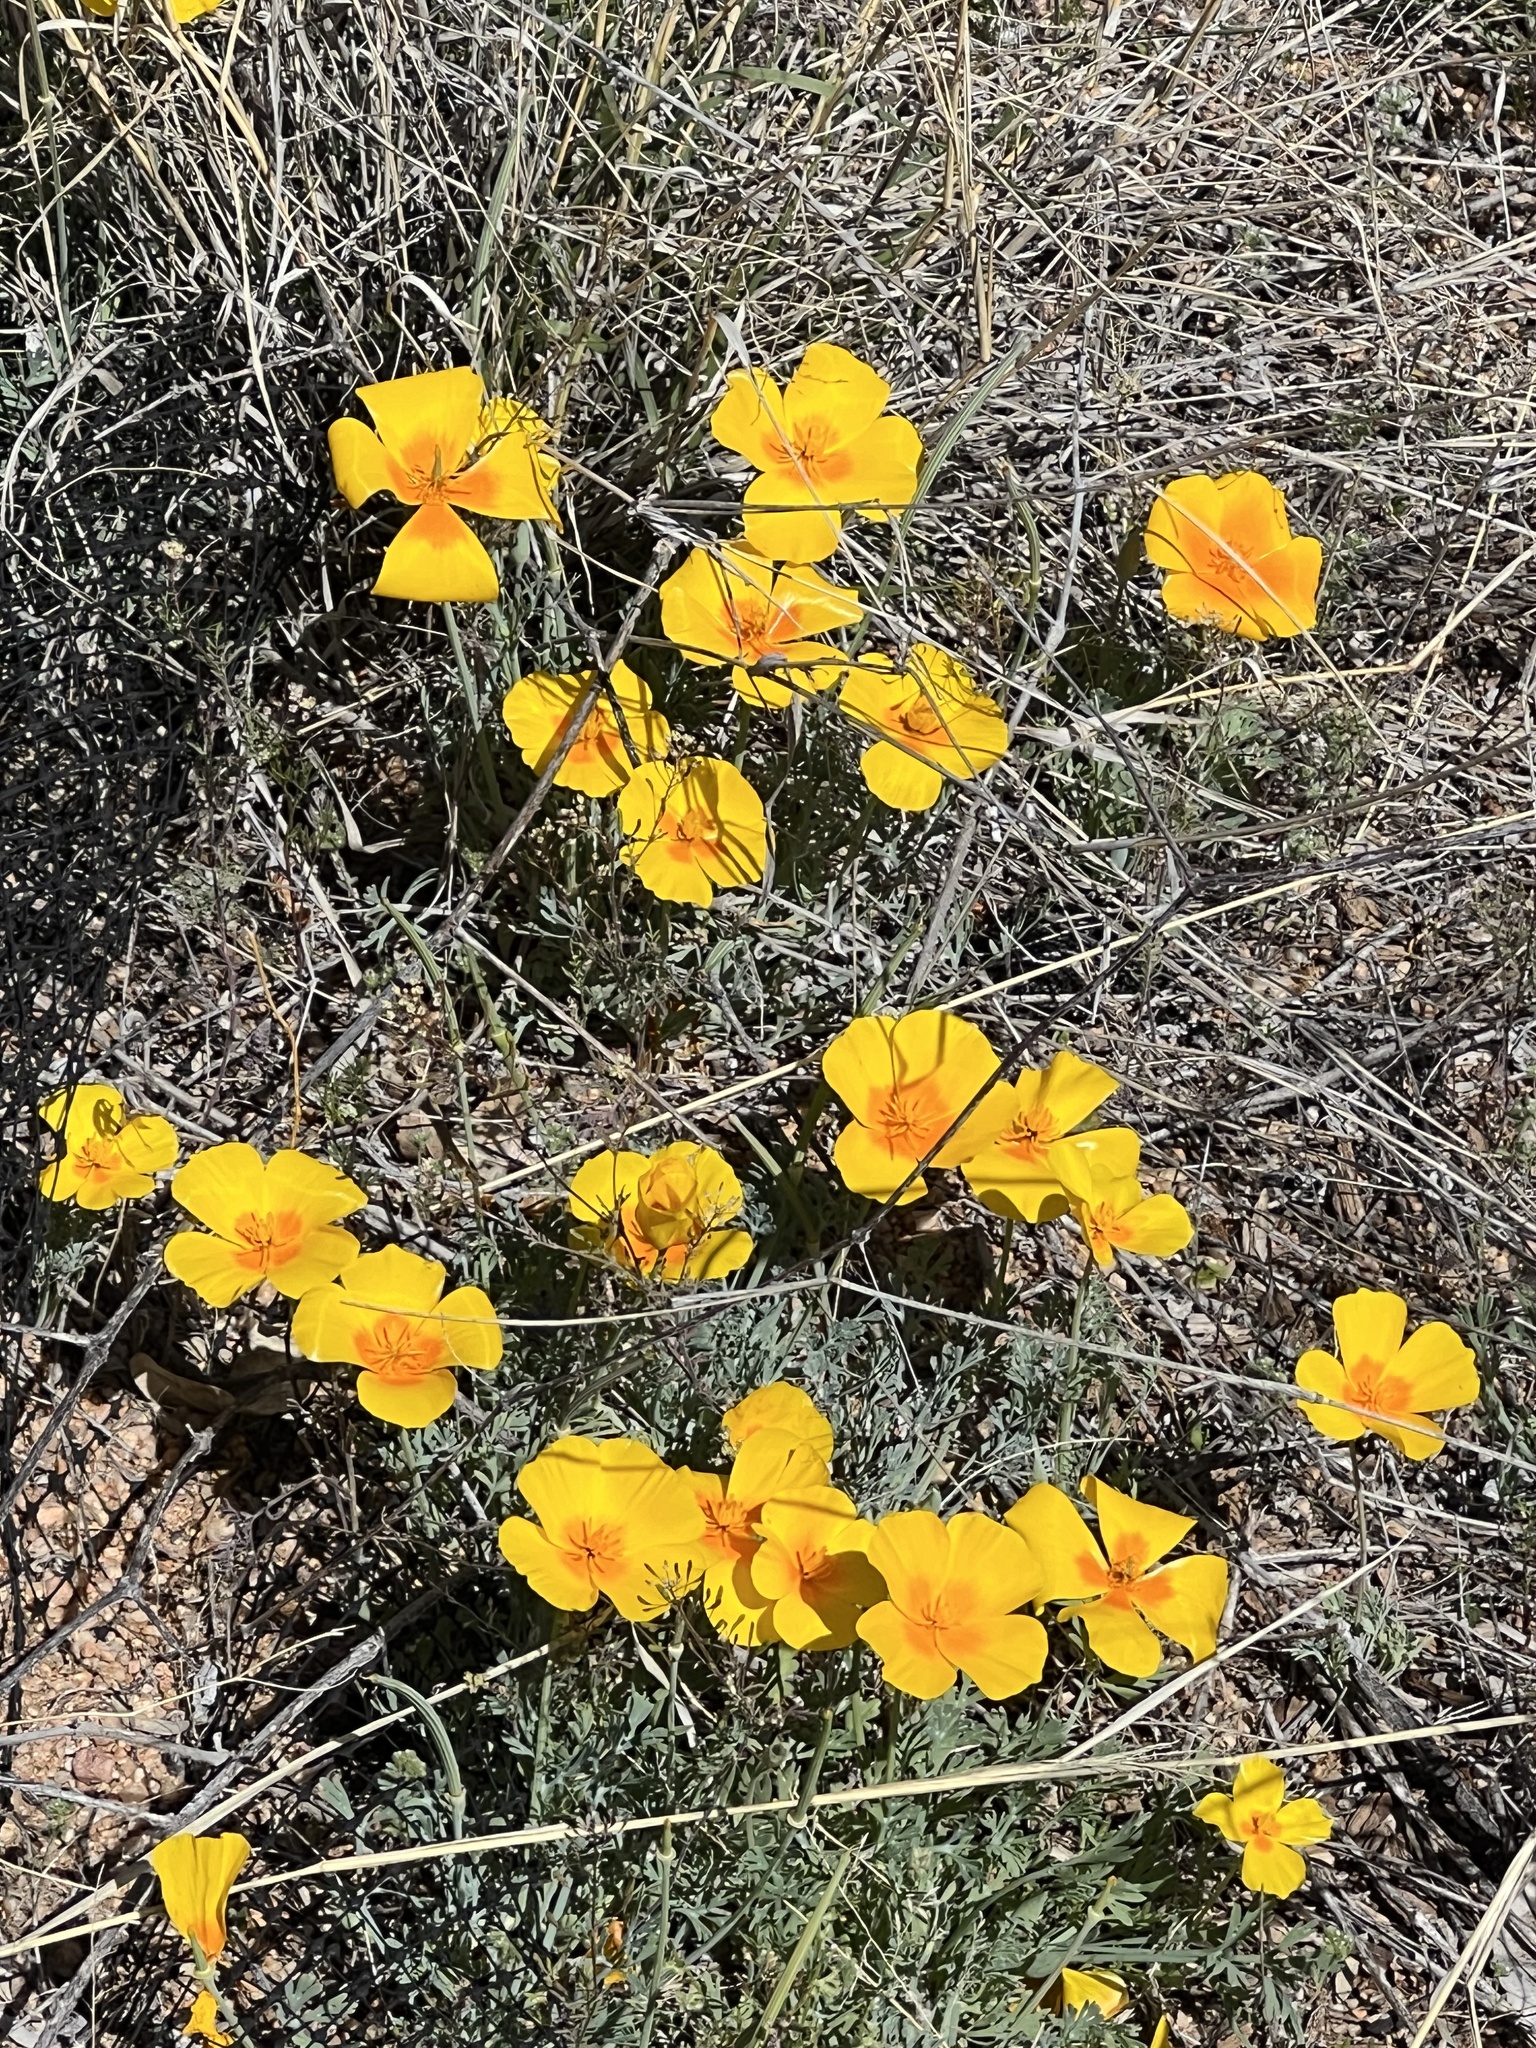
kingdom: Plantae
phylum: Tracheophyta
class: Magnoliopsida
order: Ranunculales
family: Papaveraceae
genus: Eschscholzia
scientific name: Eschscholzia californica
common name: California poppy
